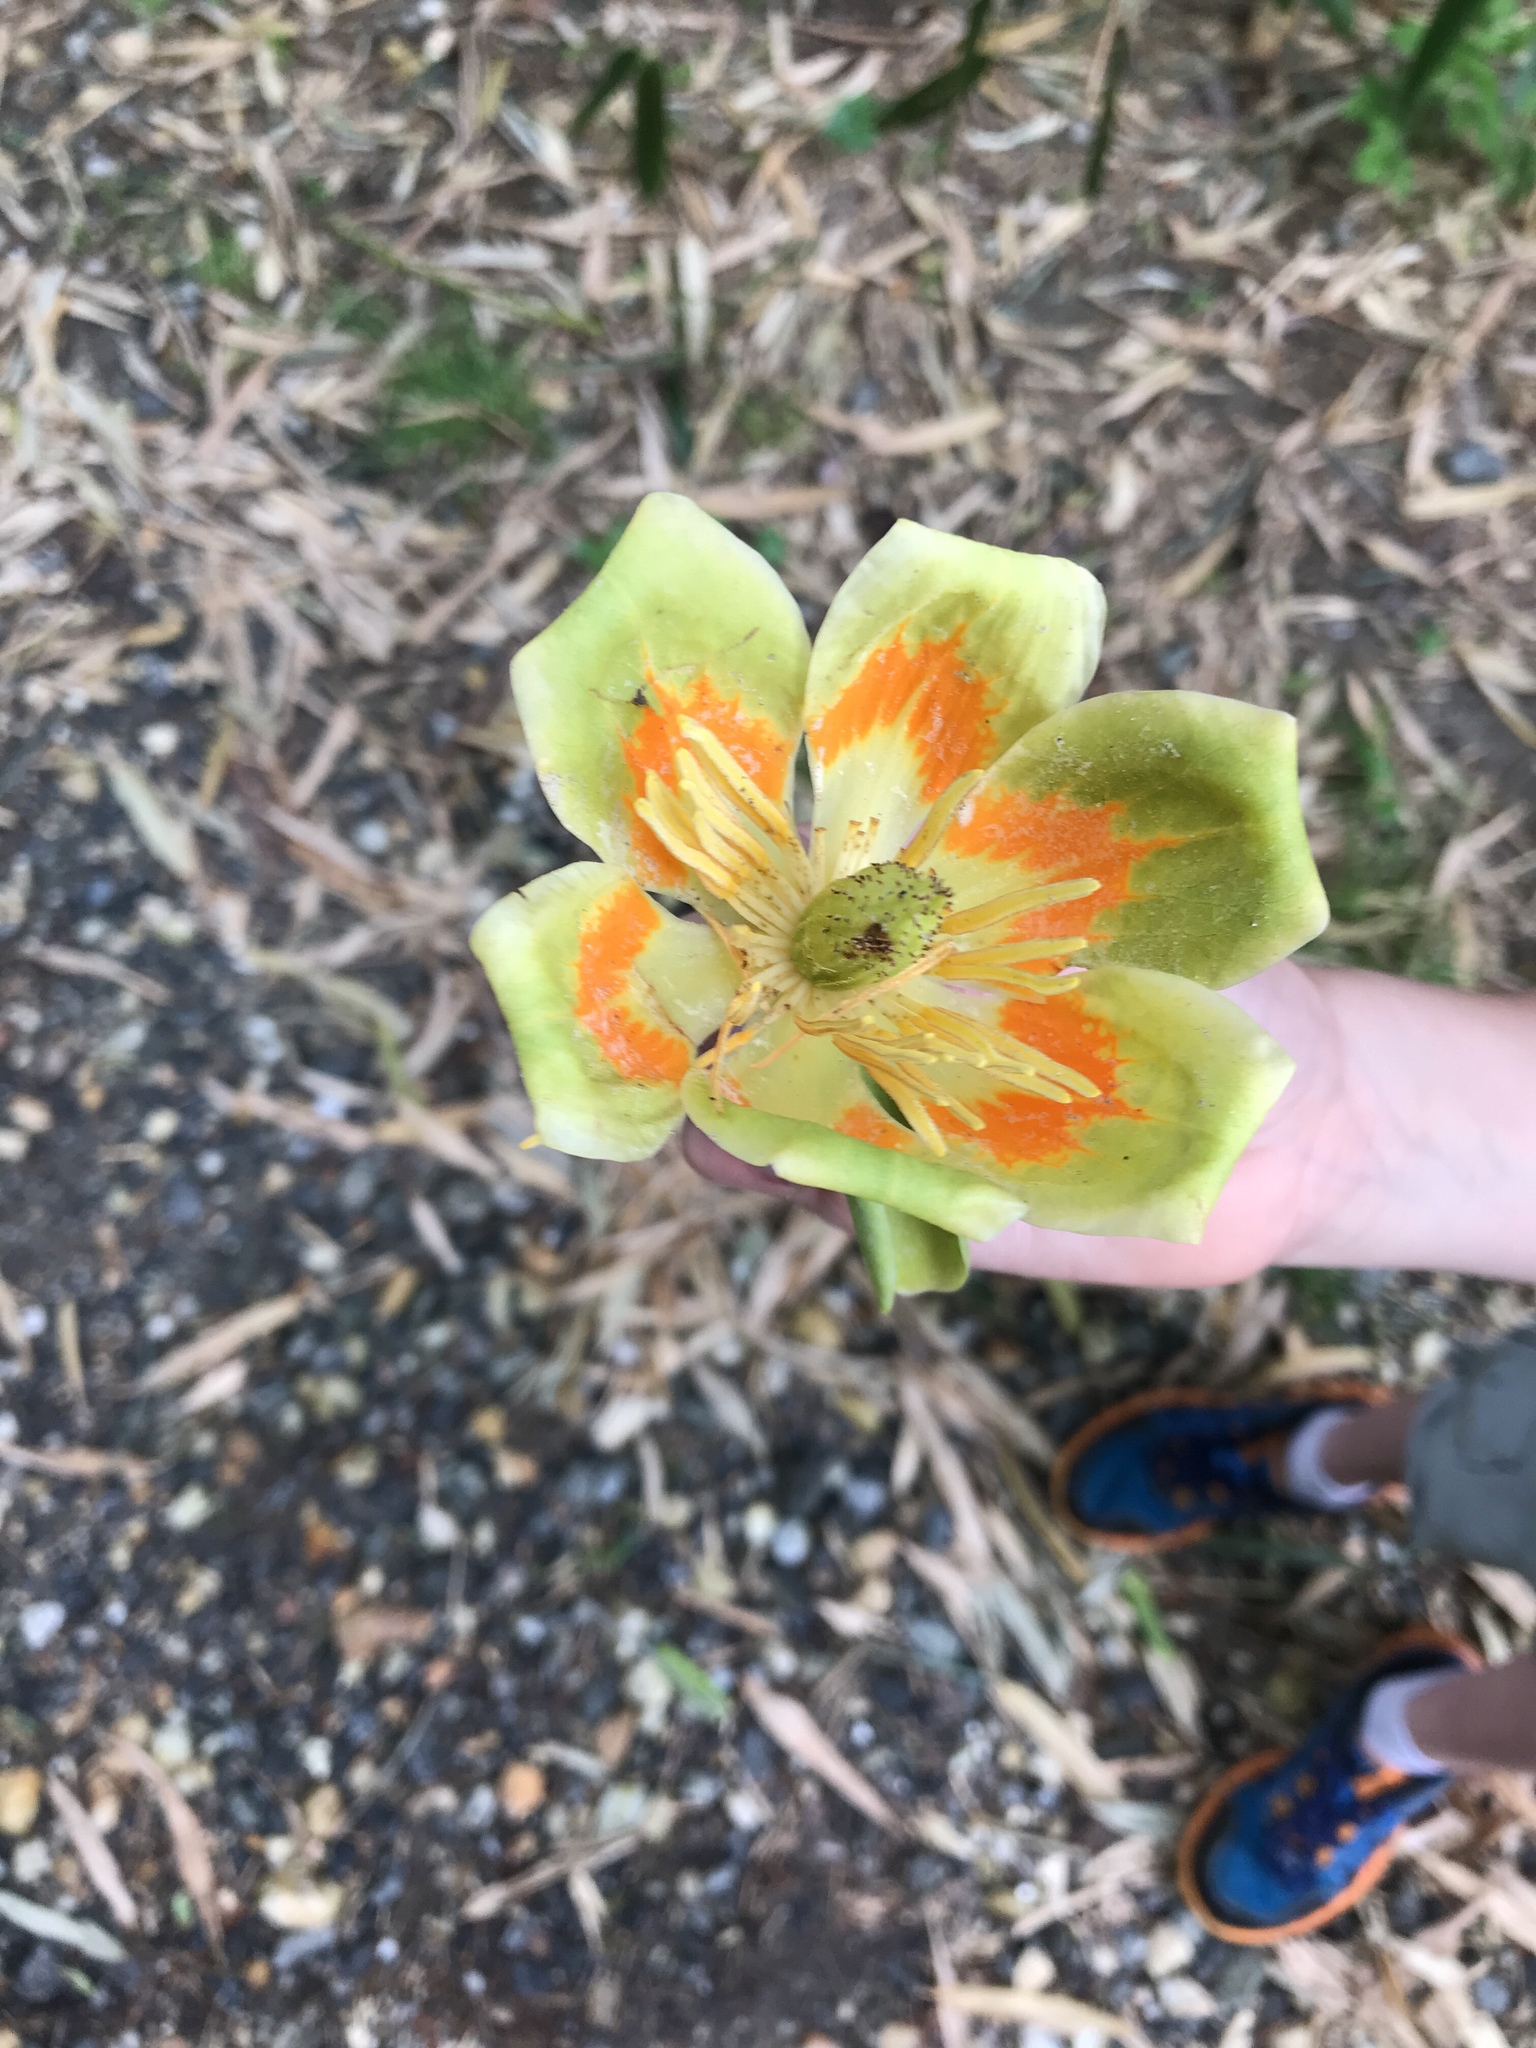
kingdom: Plantae
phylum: Tracheophyta
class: Magnoliopsida
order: Magnoliales
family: Magnoliaceae
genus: Liriodendron
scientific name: Liriodendron tulipifera
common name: Tulip tree
